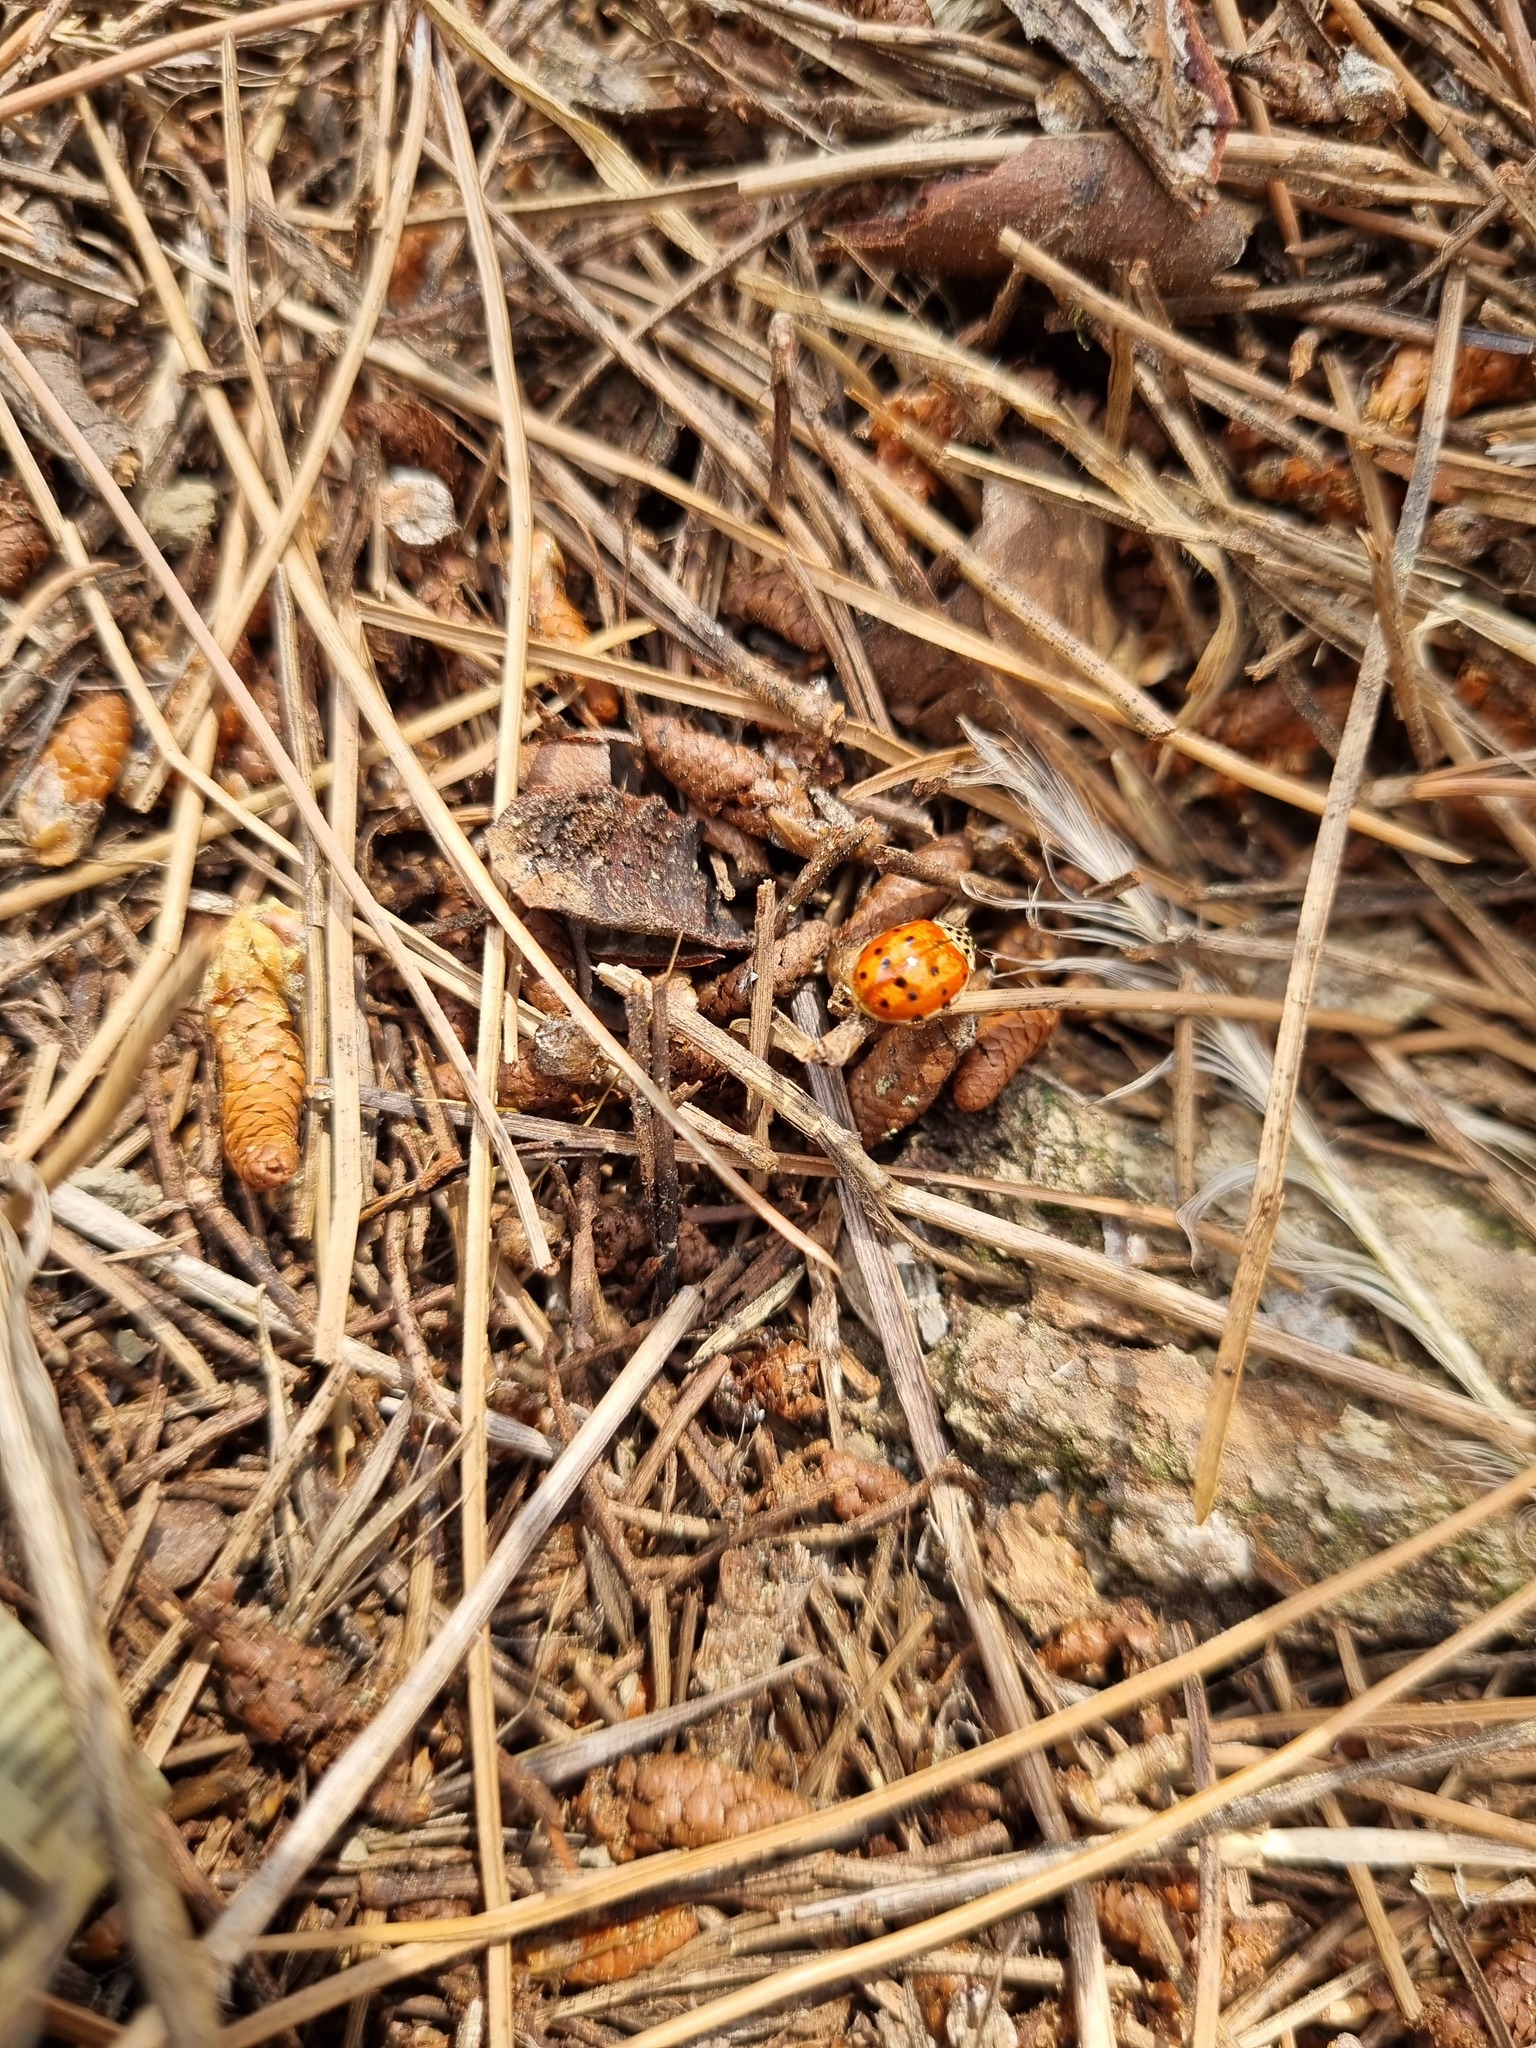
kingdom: Animalia
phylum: Arthropoda
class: Insecta
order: Coleoptera
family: Coccinellidae
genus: Harmonia
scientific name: Harmonia quadripunctata
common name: Cream-streaked ladybird
